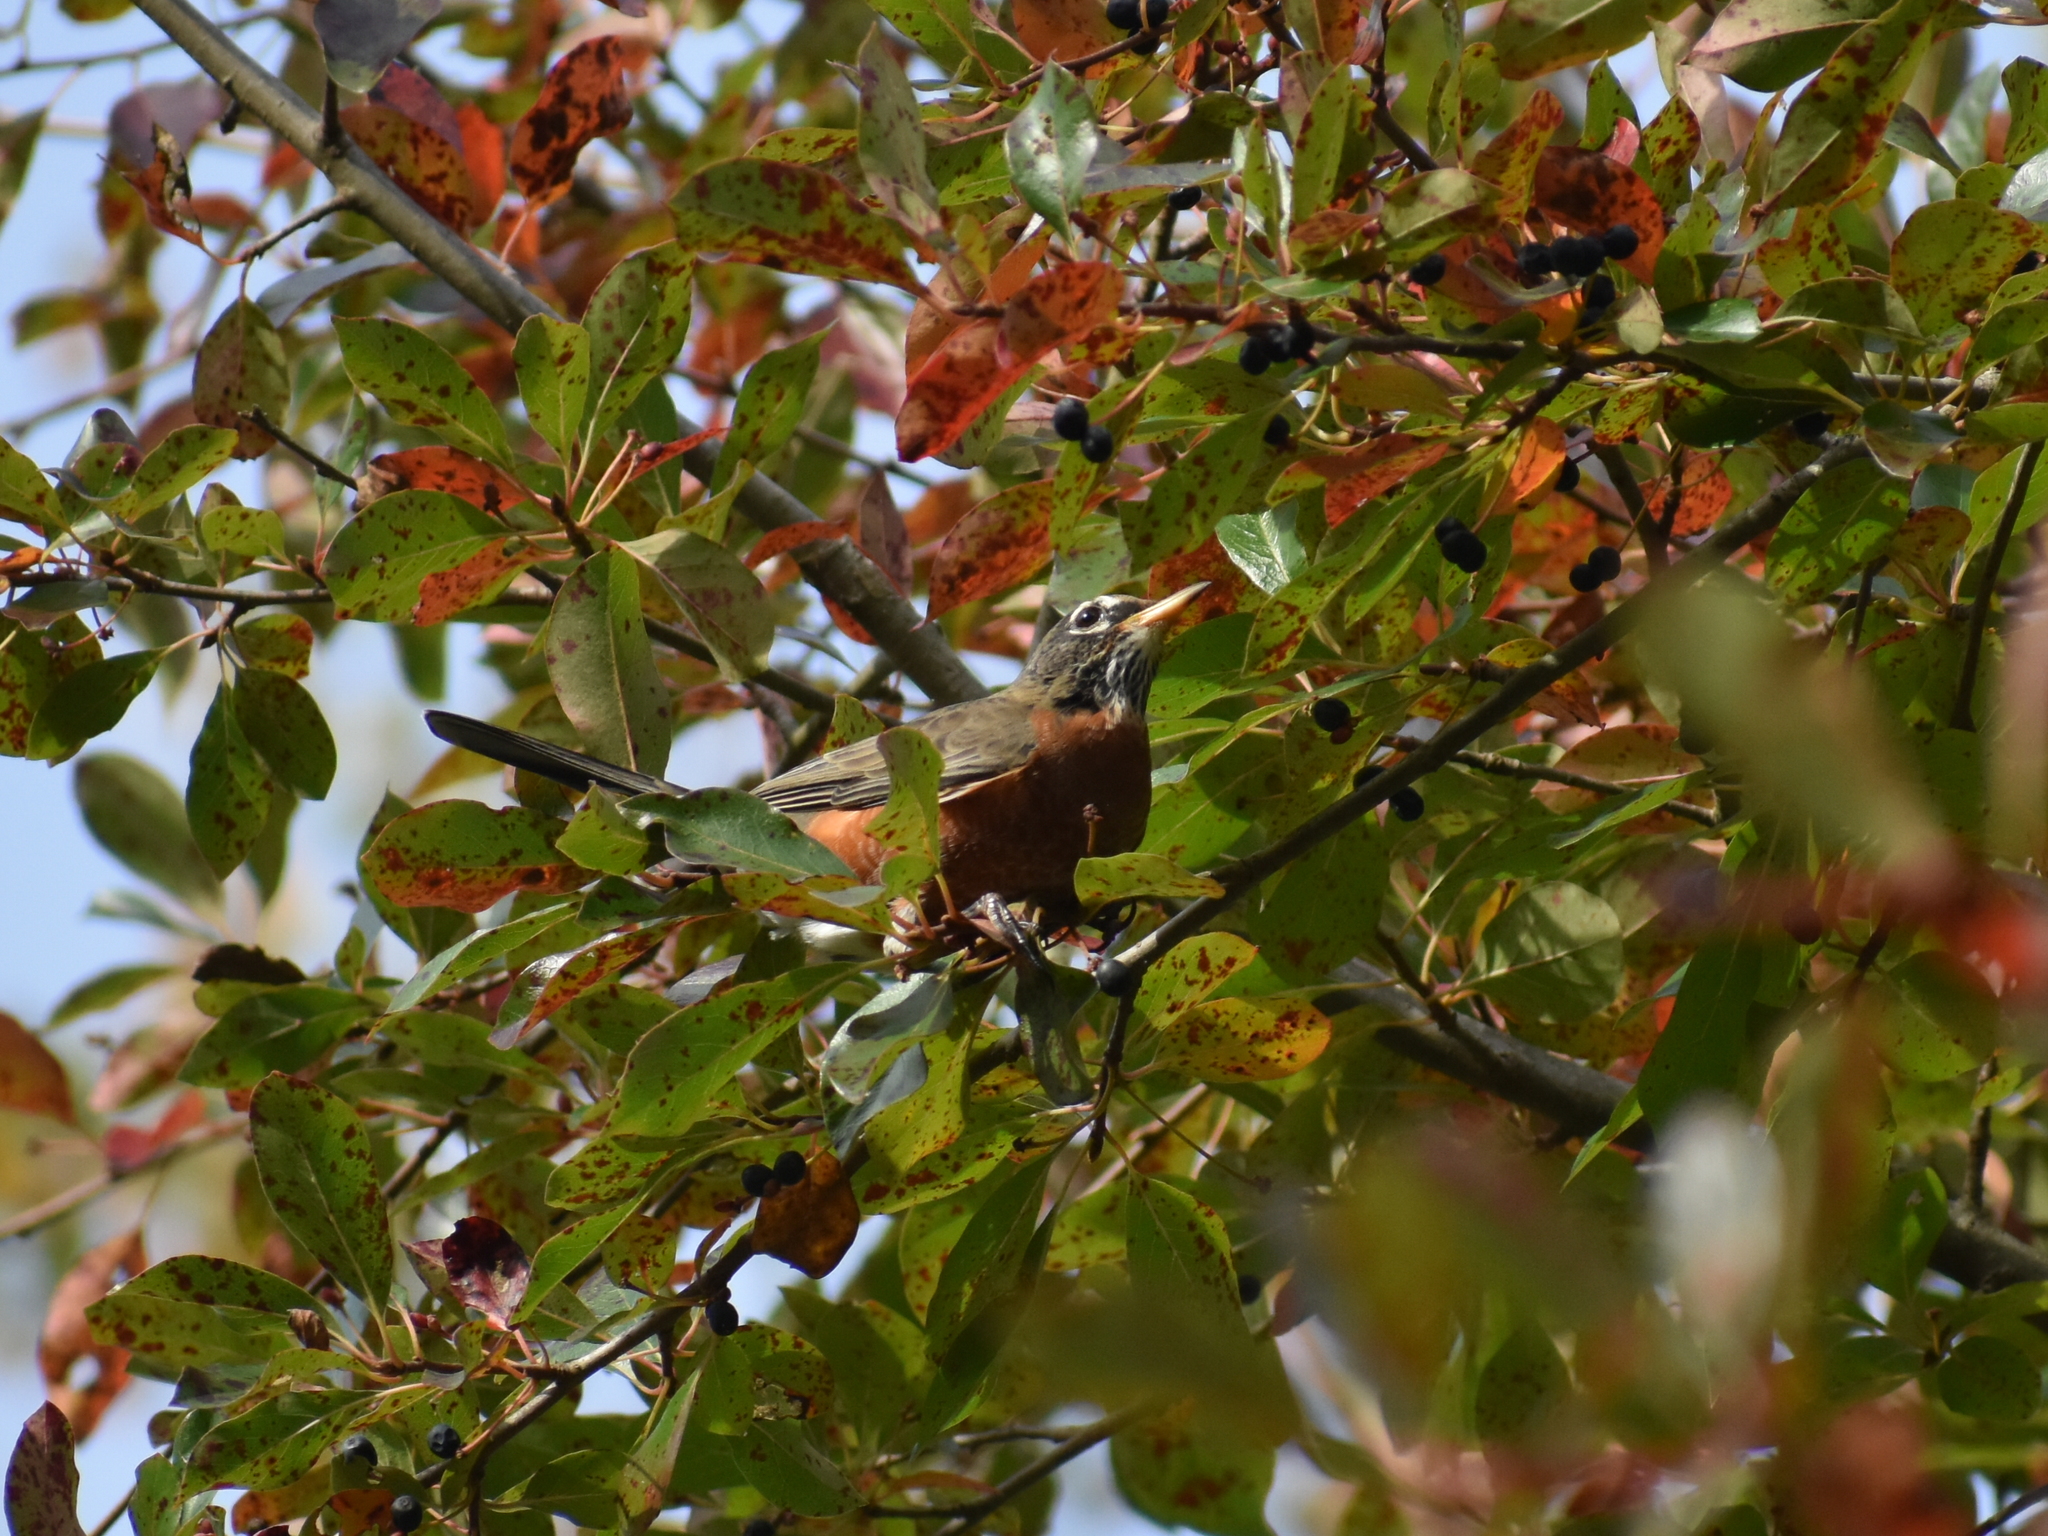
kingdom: Animalia
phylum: Chordata
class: Aves
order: Passeriformes
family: Turdidae
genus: Turdus
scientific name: Turdus migratorius
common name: American robin
